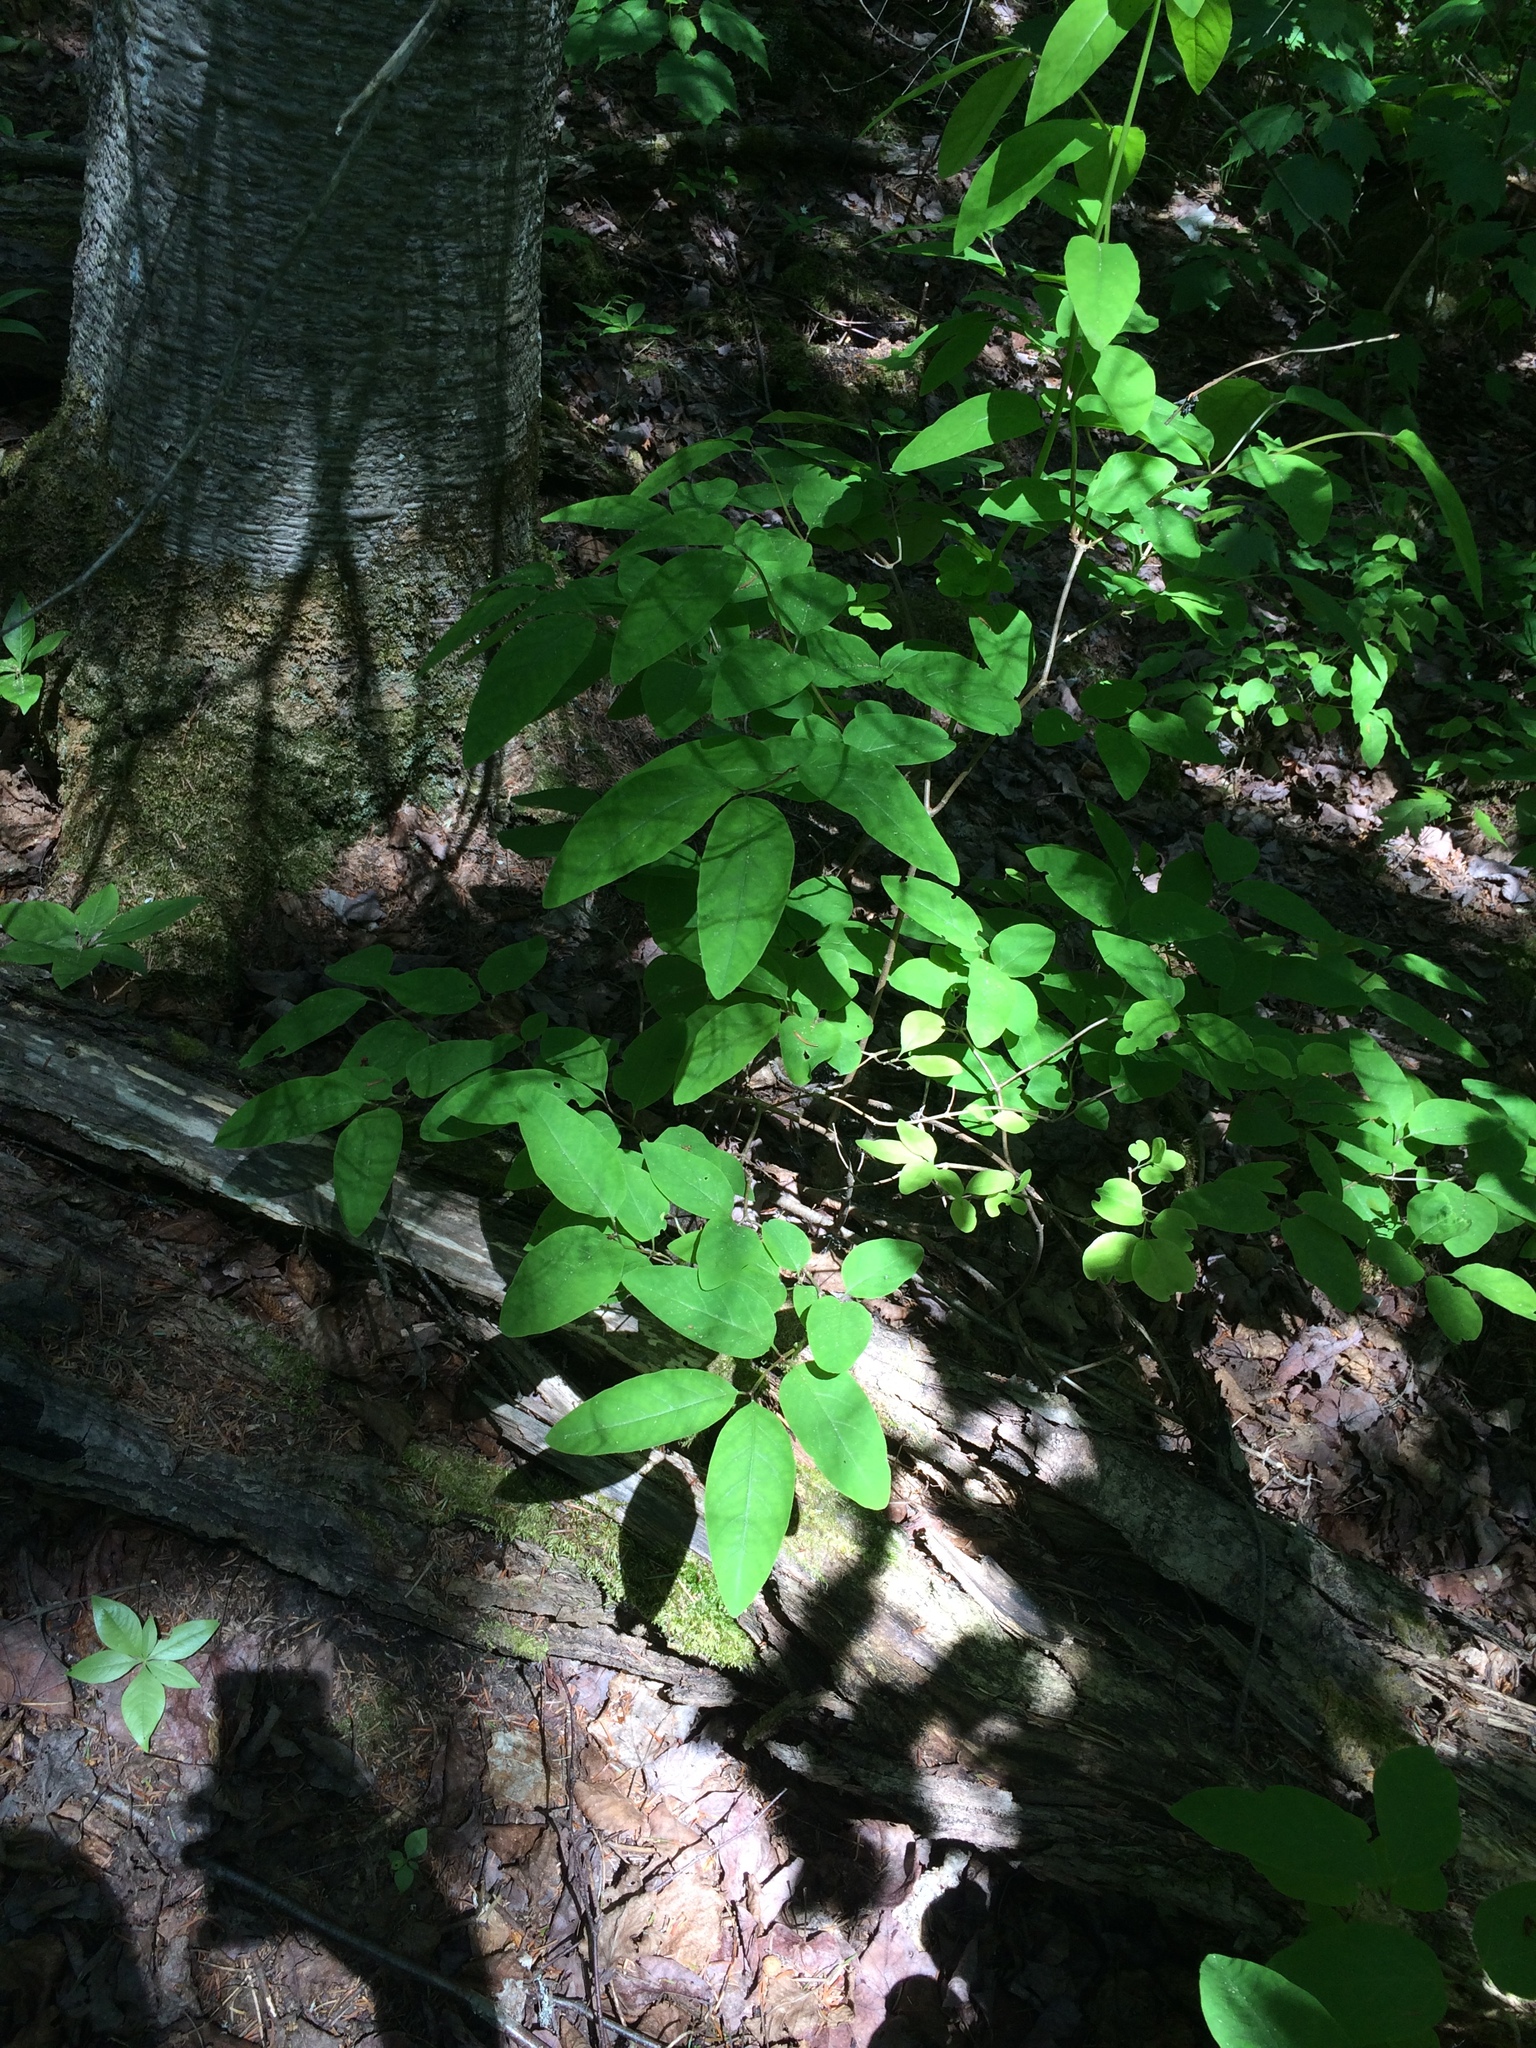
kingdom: Plantae
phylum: Tracheophyta
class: Magnoliopsida
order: Dipsacales
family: Caprifoliaceae
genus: Lonicera
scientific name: Lonicera canadensis
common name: American fly-honeysuckle
